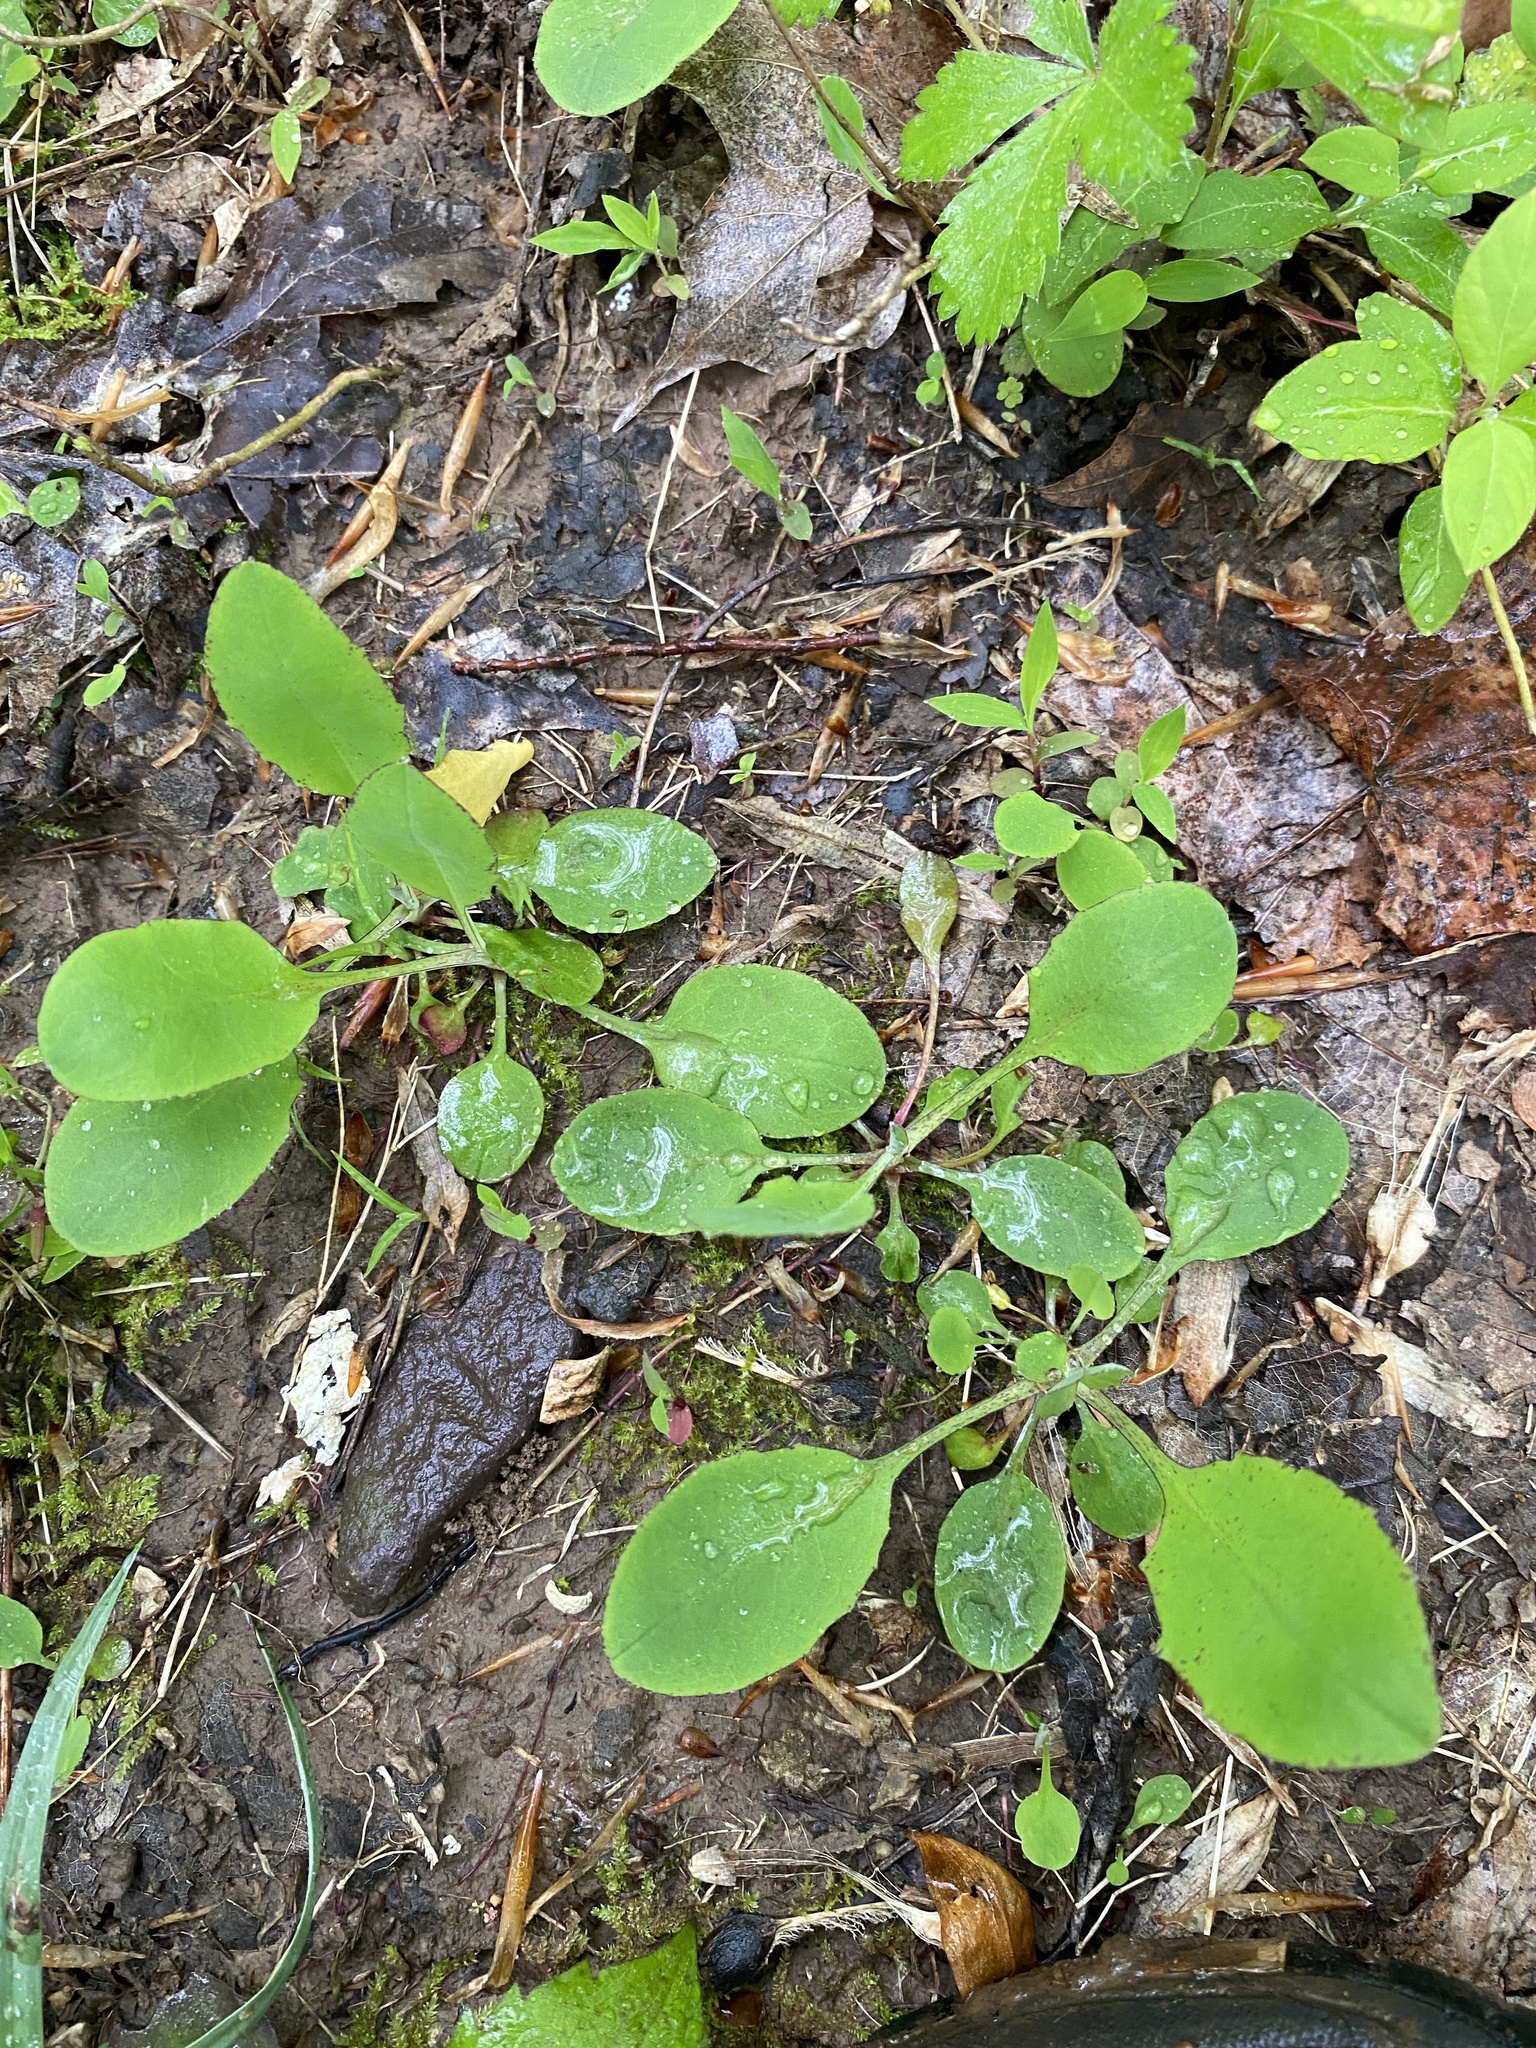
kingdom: Plantae
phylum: Tracheophyta
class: Magnoliopsida
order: Asterales
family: Asteraceae
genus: Krigia
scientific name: Krigia biflora
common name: Orange dwarf-dandelion
